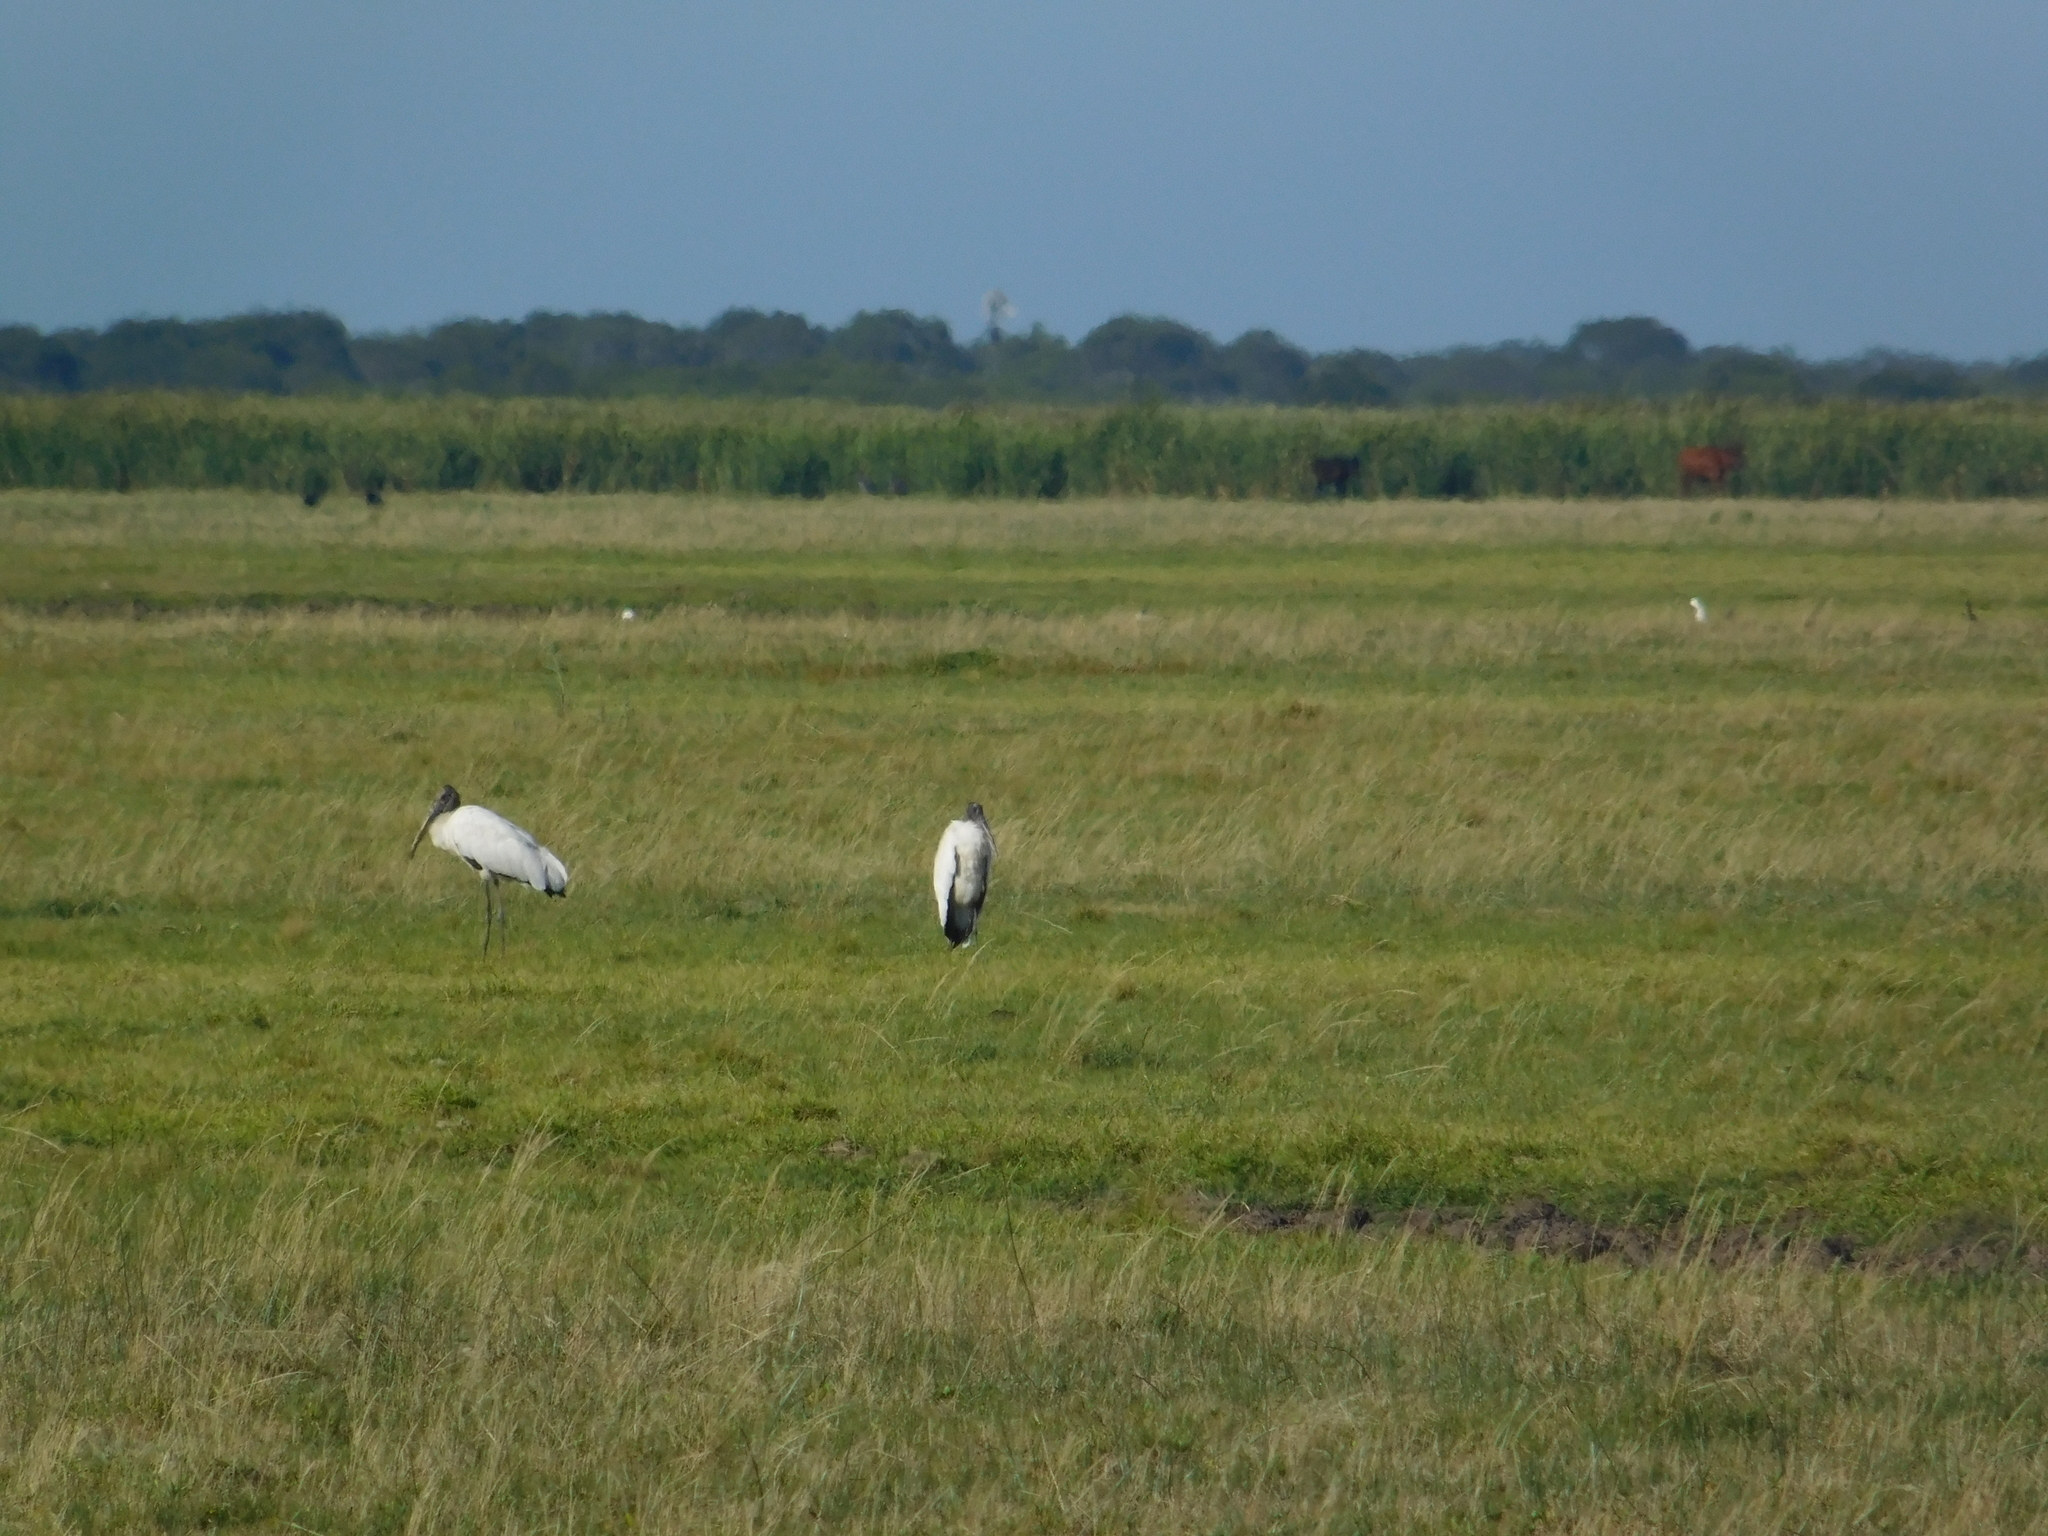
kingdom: Animalia
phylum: Chordata
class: Aves
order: Ciconiiformes
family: Ciconiidae
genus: Mycteria
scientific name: Mycteria americana
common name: Wood stork
